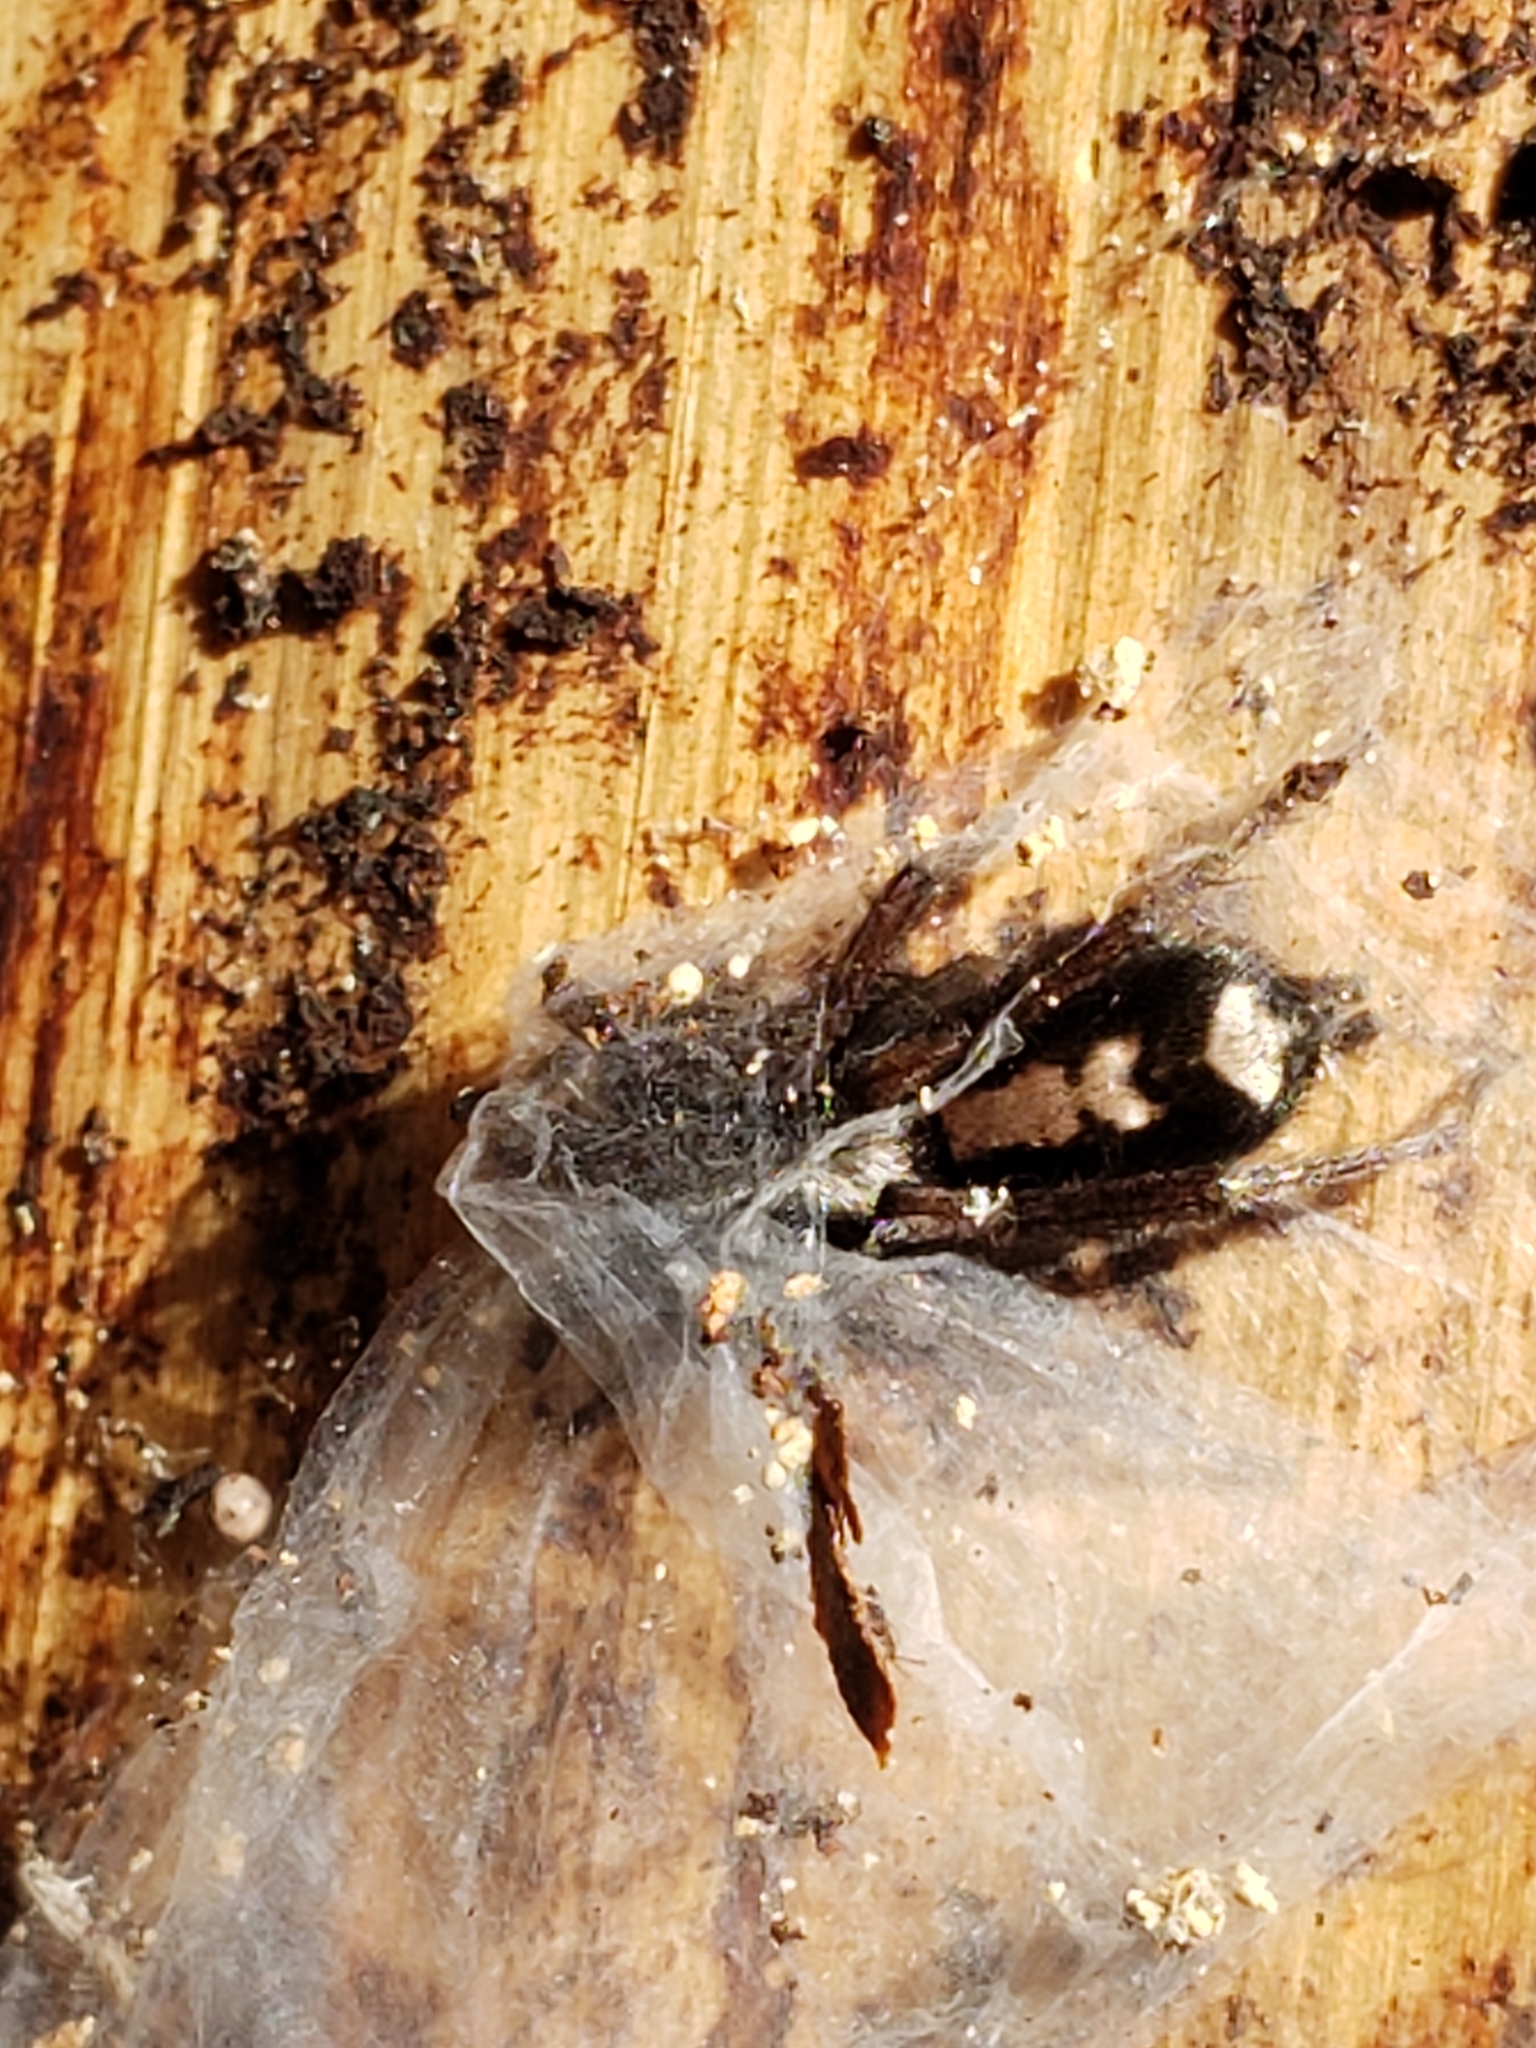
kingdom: Animalia
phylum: Arthropoda
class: Arachnida
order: Araneae
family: Gnaphosidae
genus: Herpyllus
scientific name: Herpyllus ecclesiasticus
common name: Eastern parson spider
